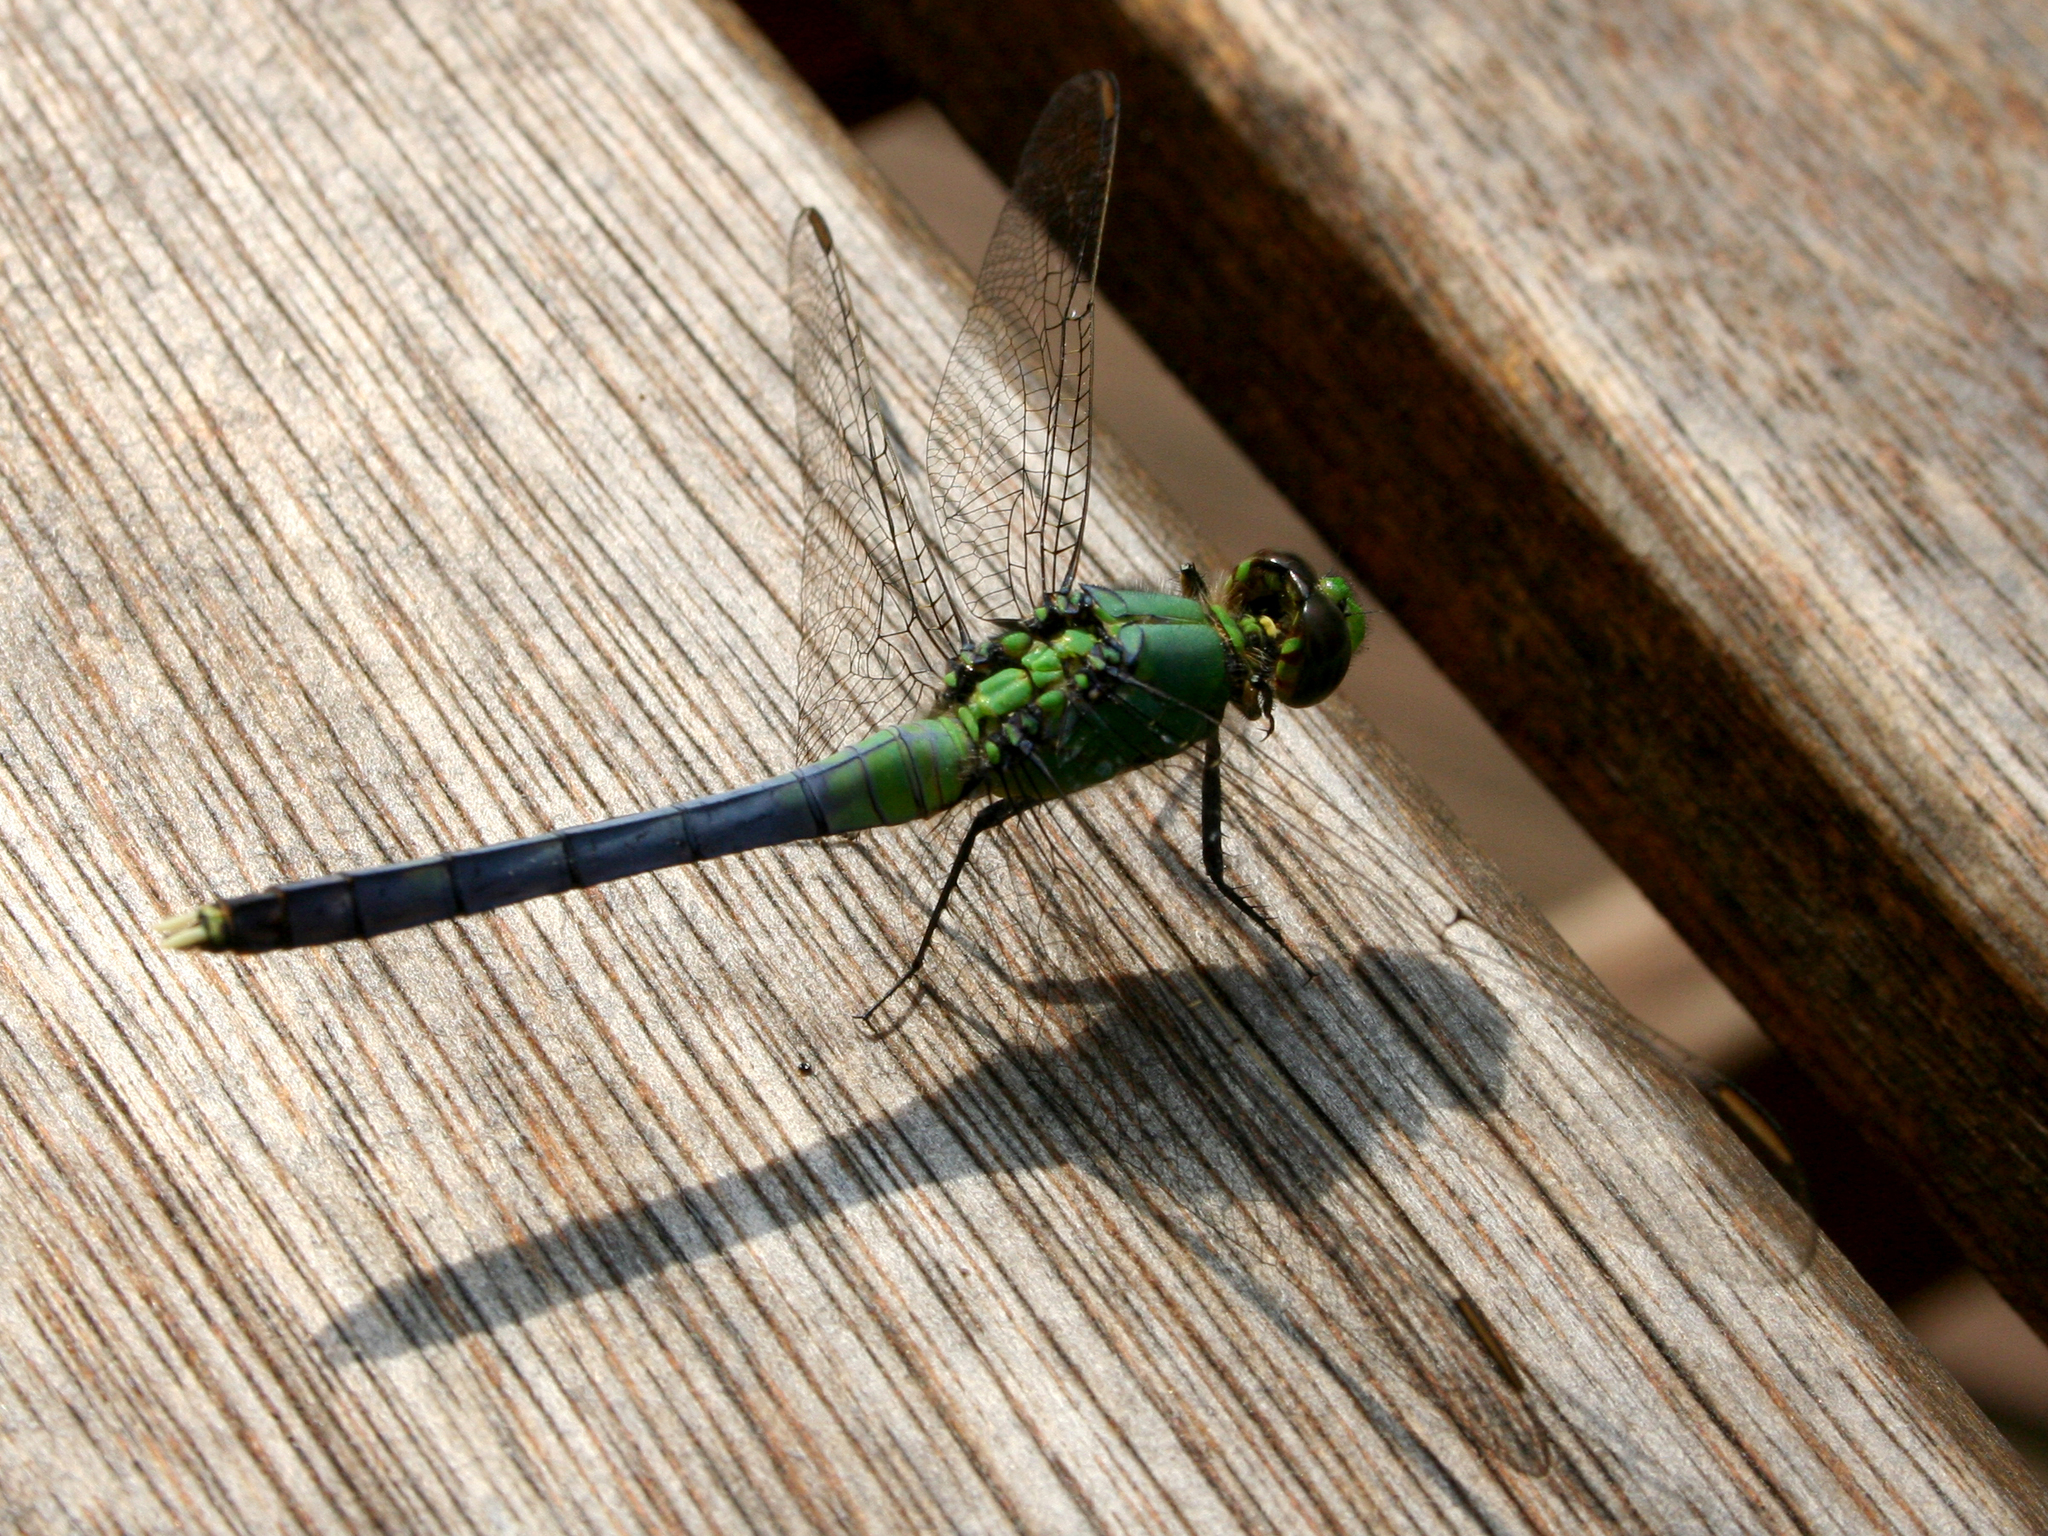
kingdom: Animalia
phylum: Arthropoda
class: Insecta
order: Odonata
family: Libellulidae
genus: Erythemis
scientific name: Erythemis simplicicollis
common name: Eastern pondhawk
